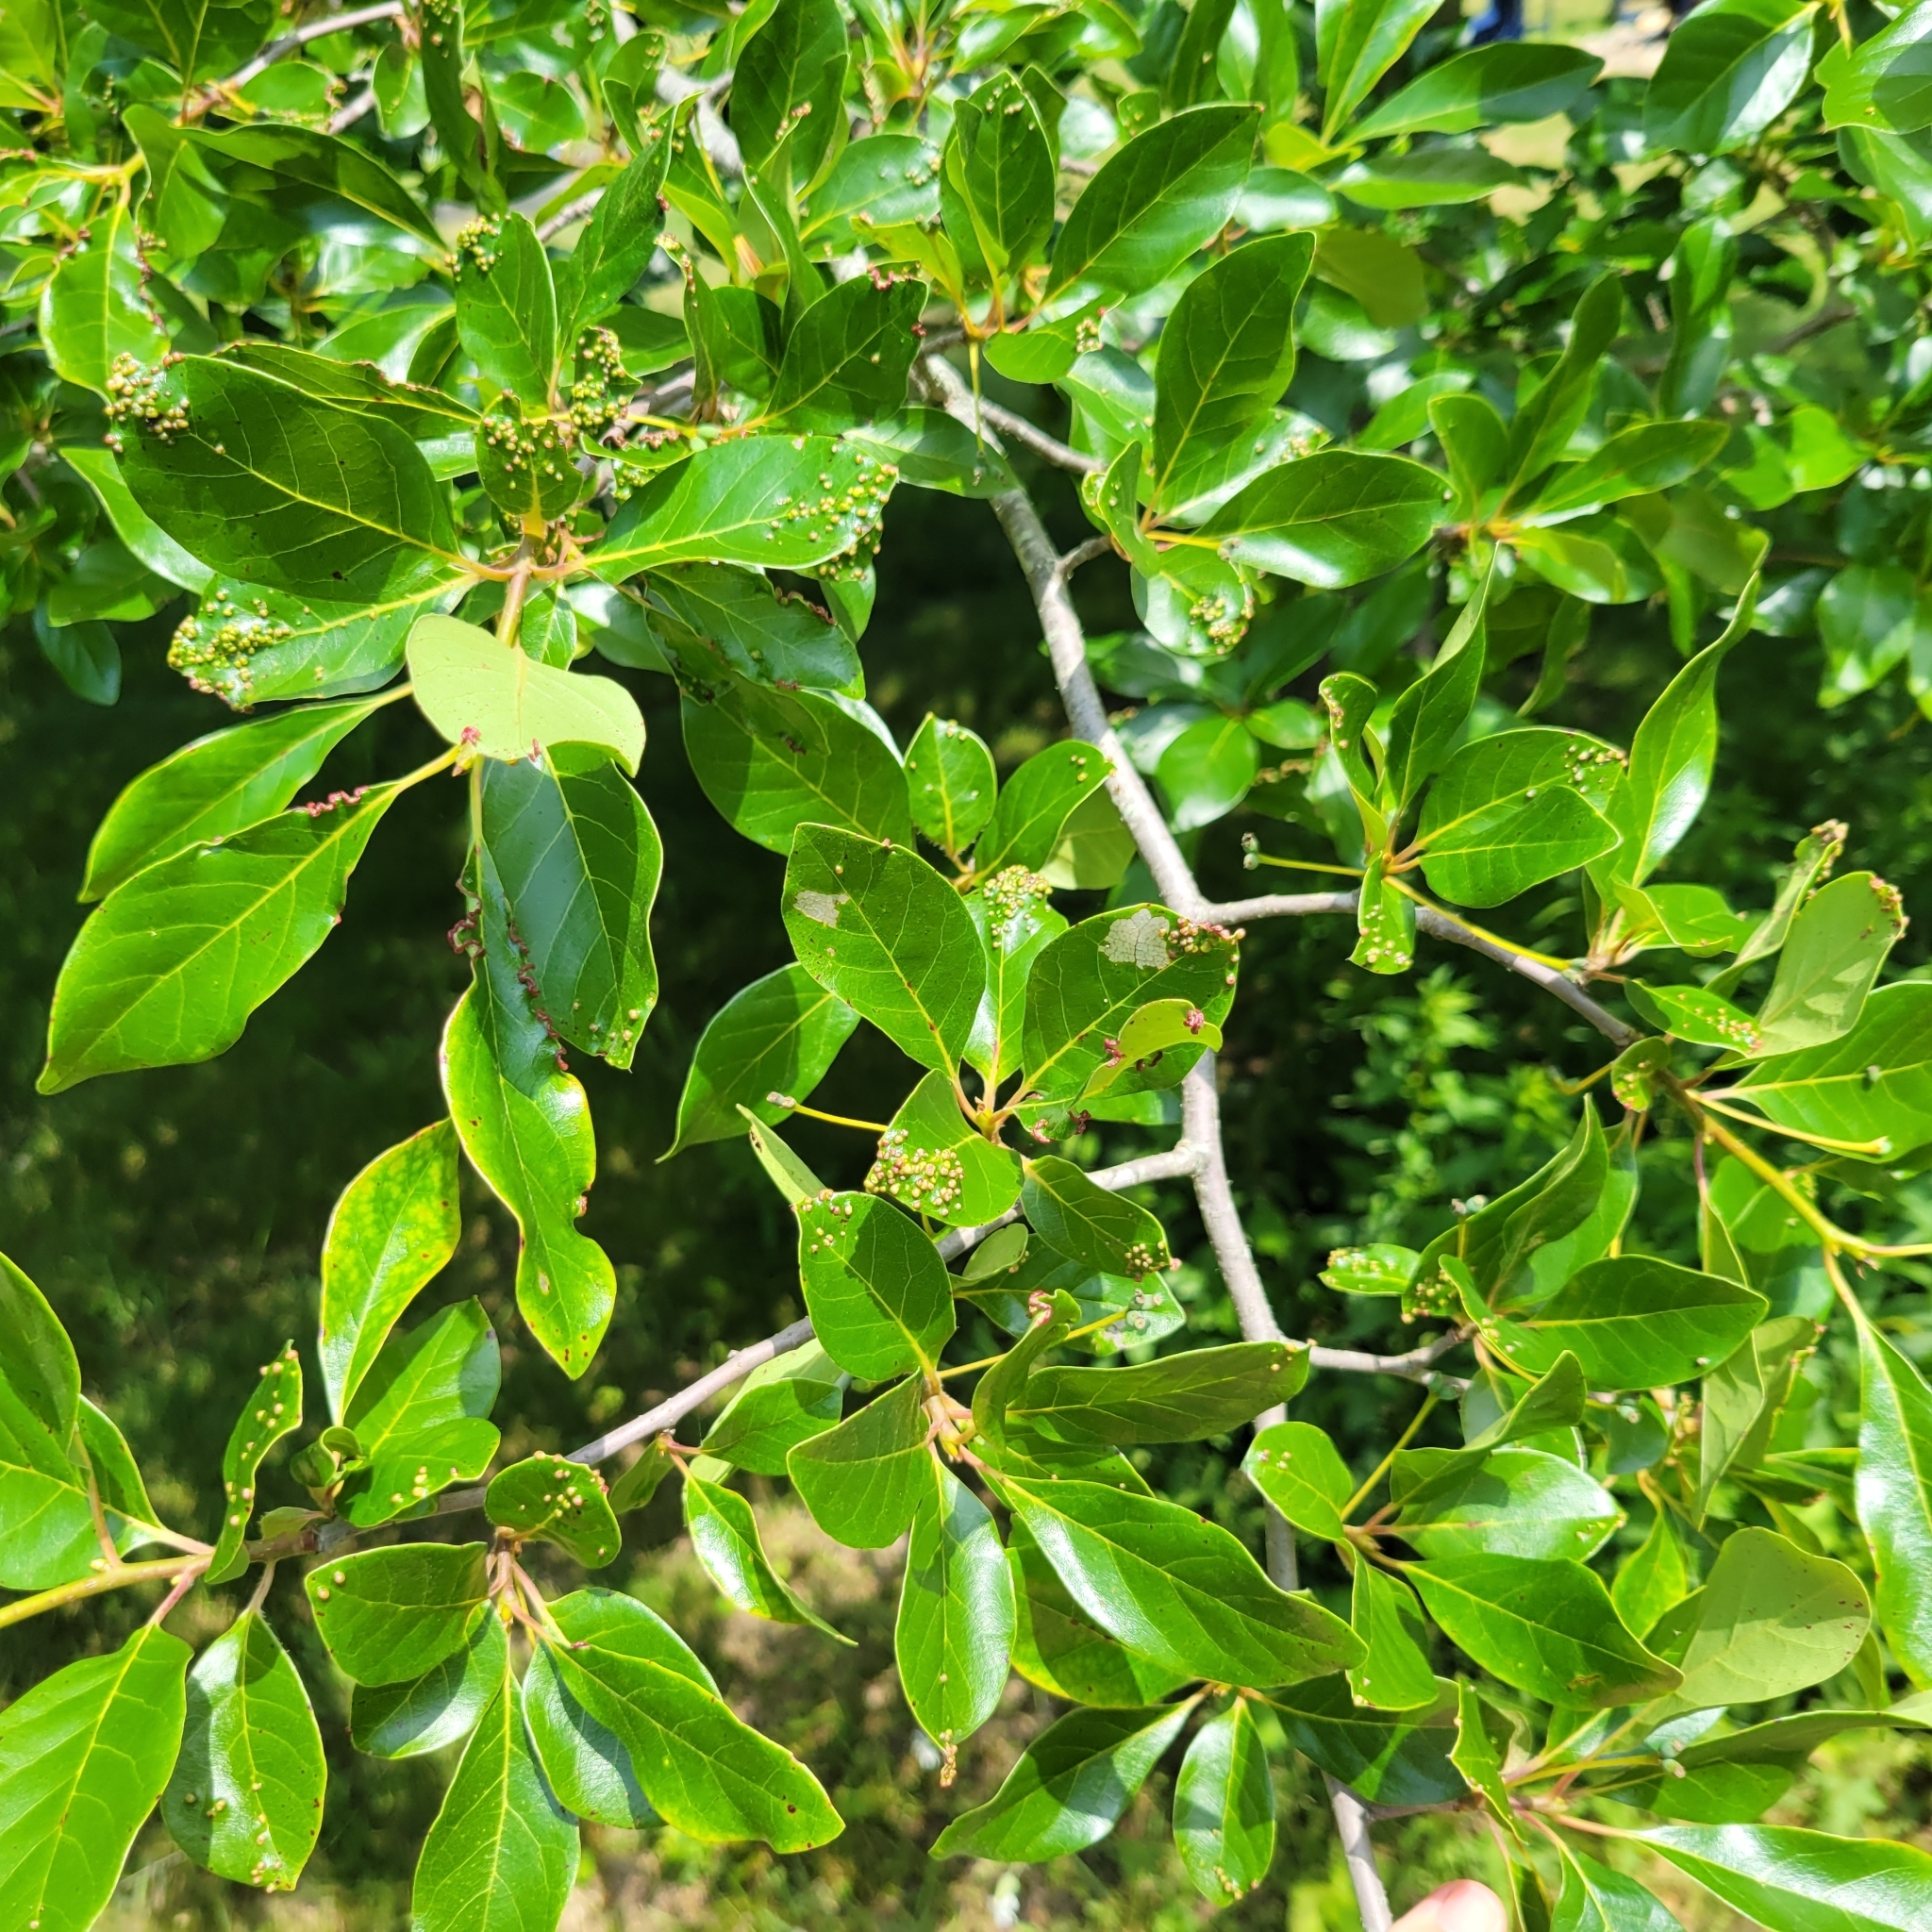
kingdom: Animalia
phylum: Arthropoda
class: Arachnida
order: Trombidiformes
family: Eriophyidae
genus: Aceria
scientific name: Aceria
